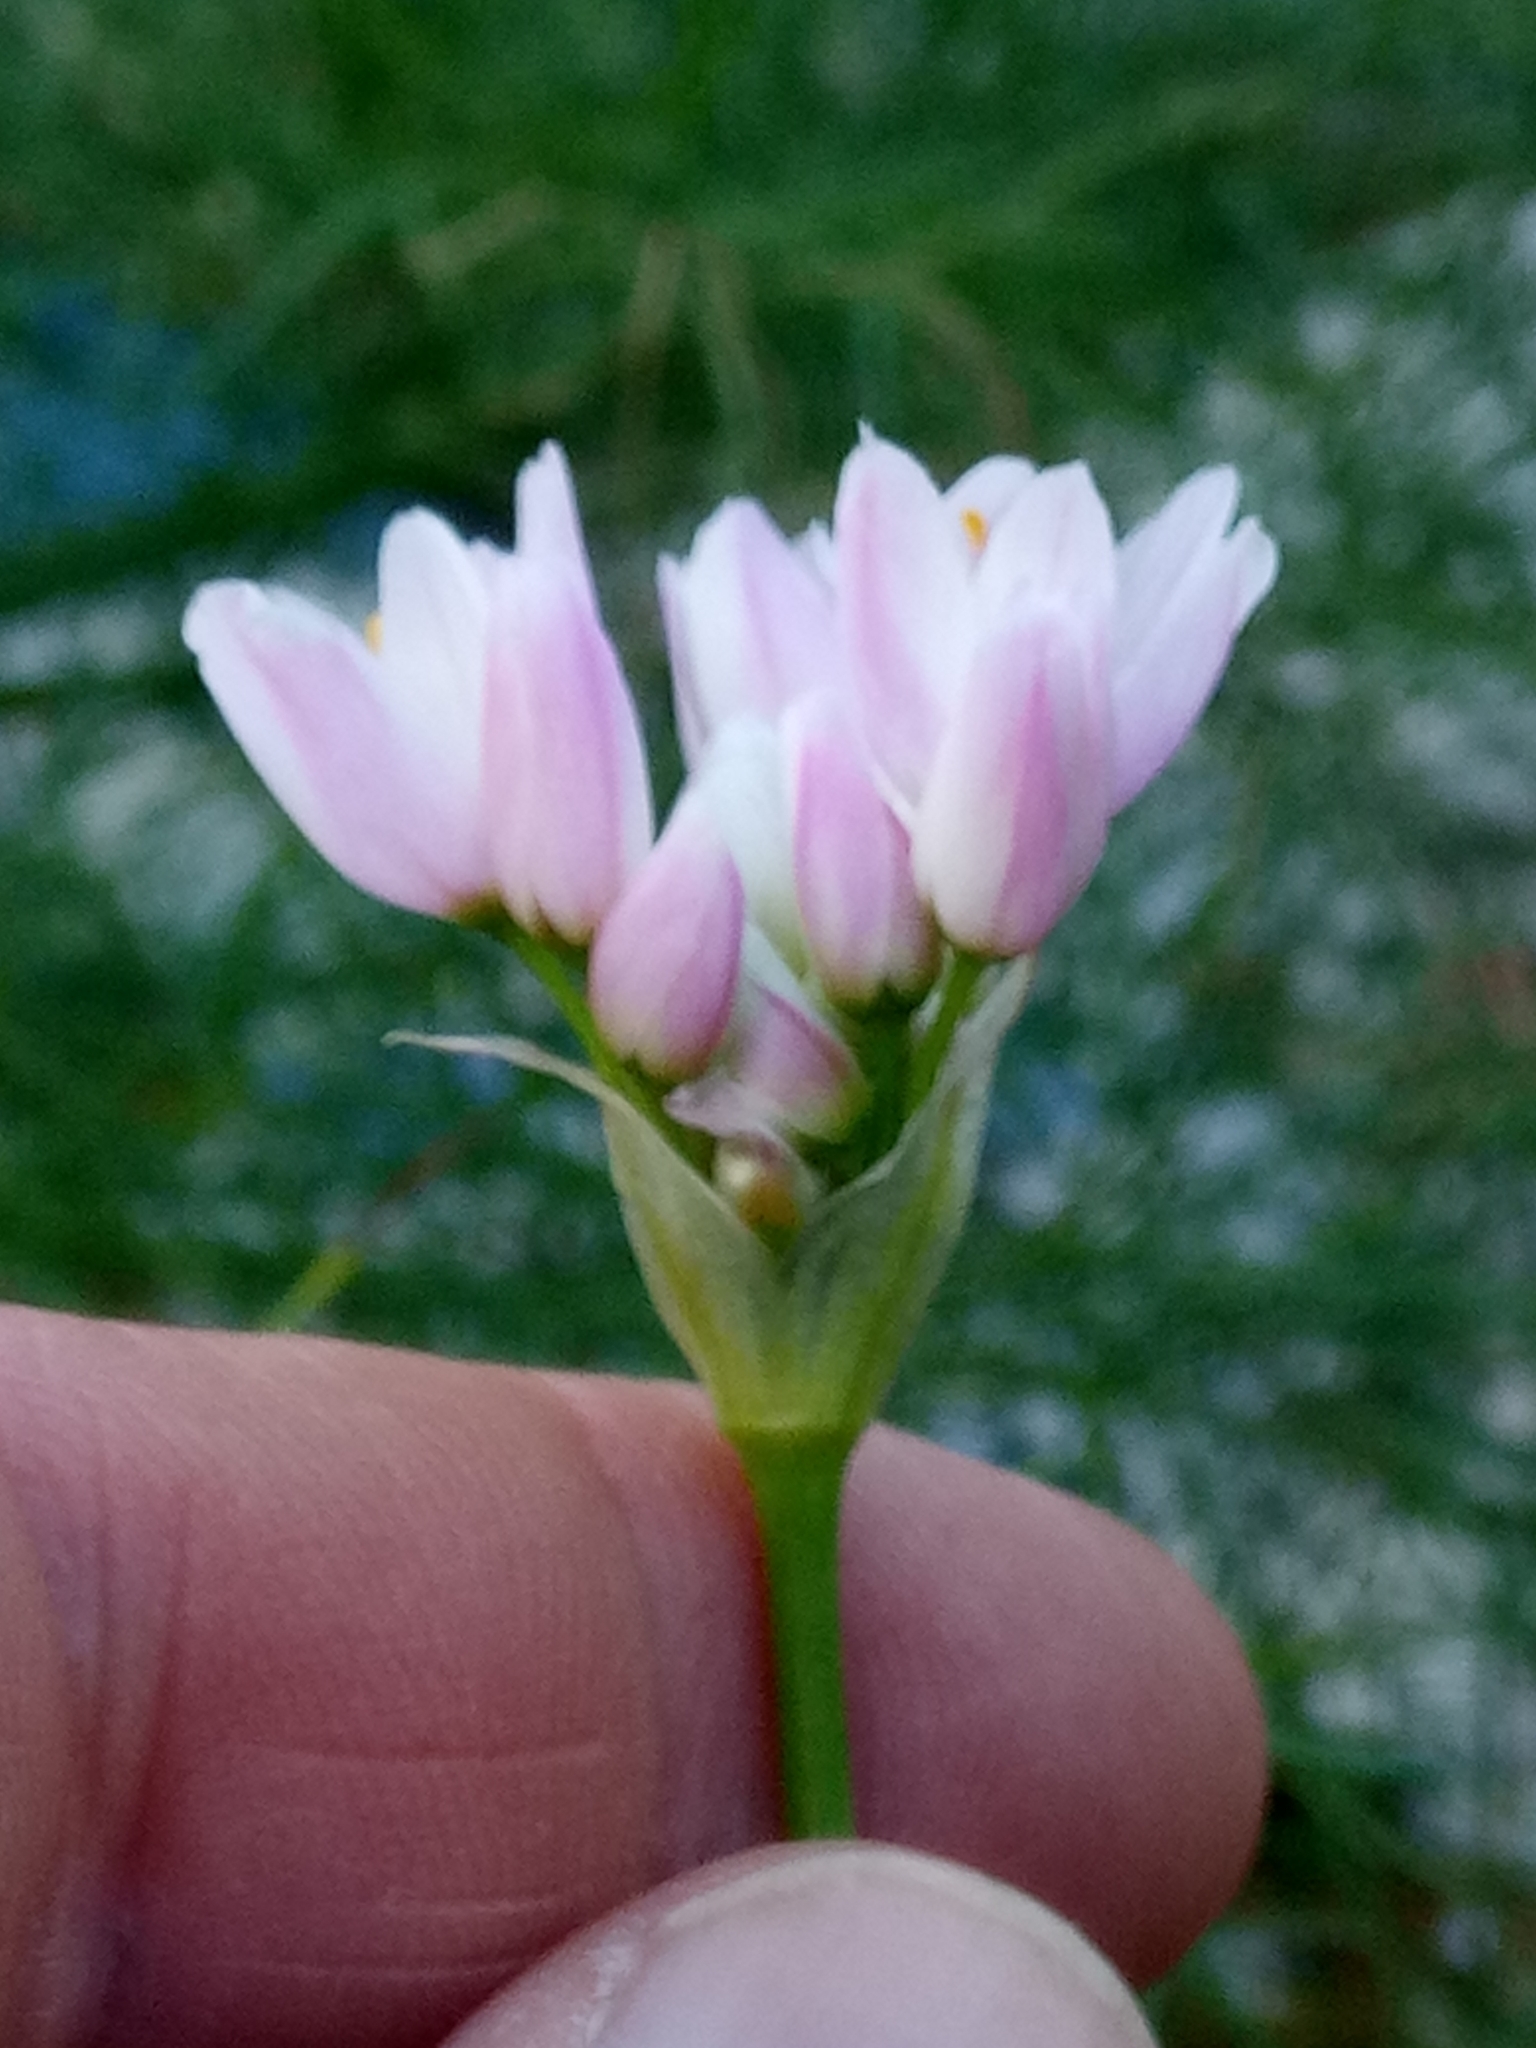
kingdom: Plantae
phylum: Tracheophyta
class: Liliopsida
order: Asparagales
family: Amaryllidaceae
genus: Allium
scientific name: Allium roseum
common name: Rosy garlic
